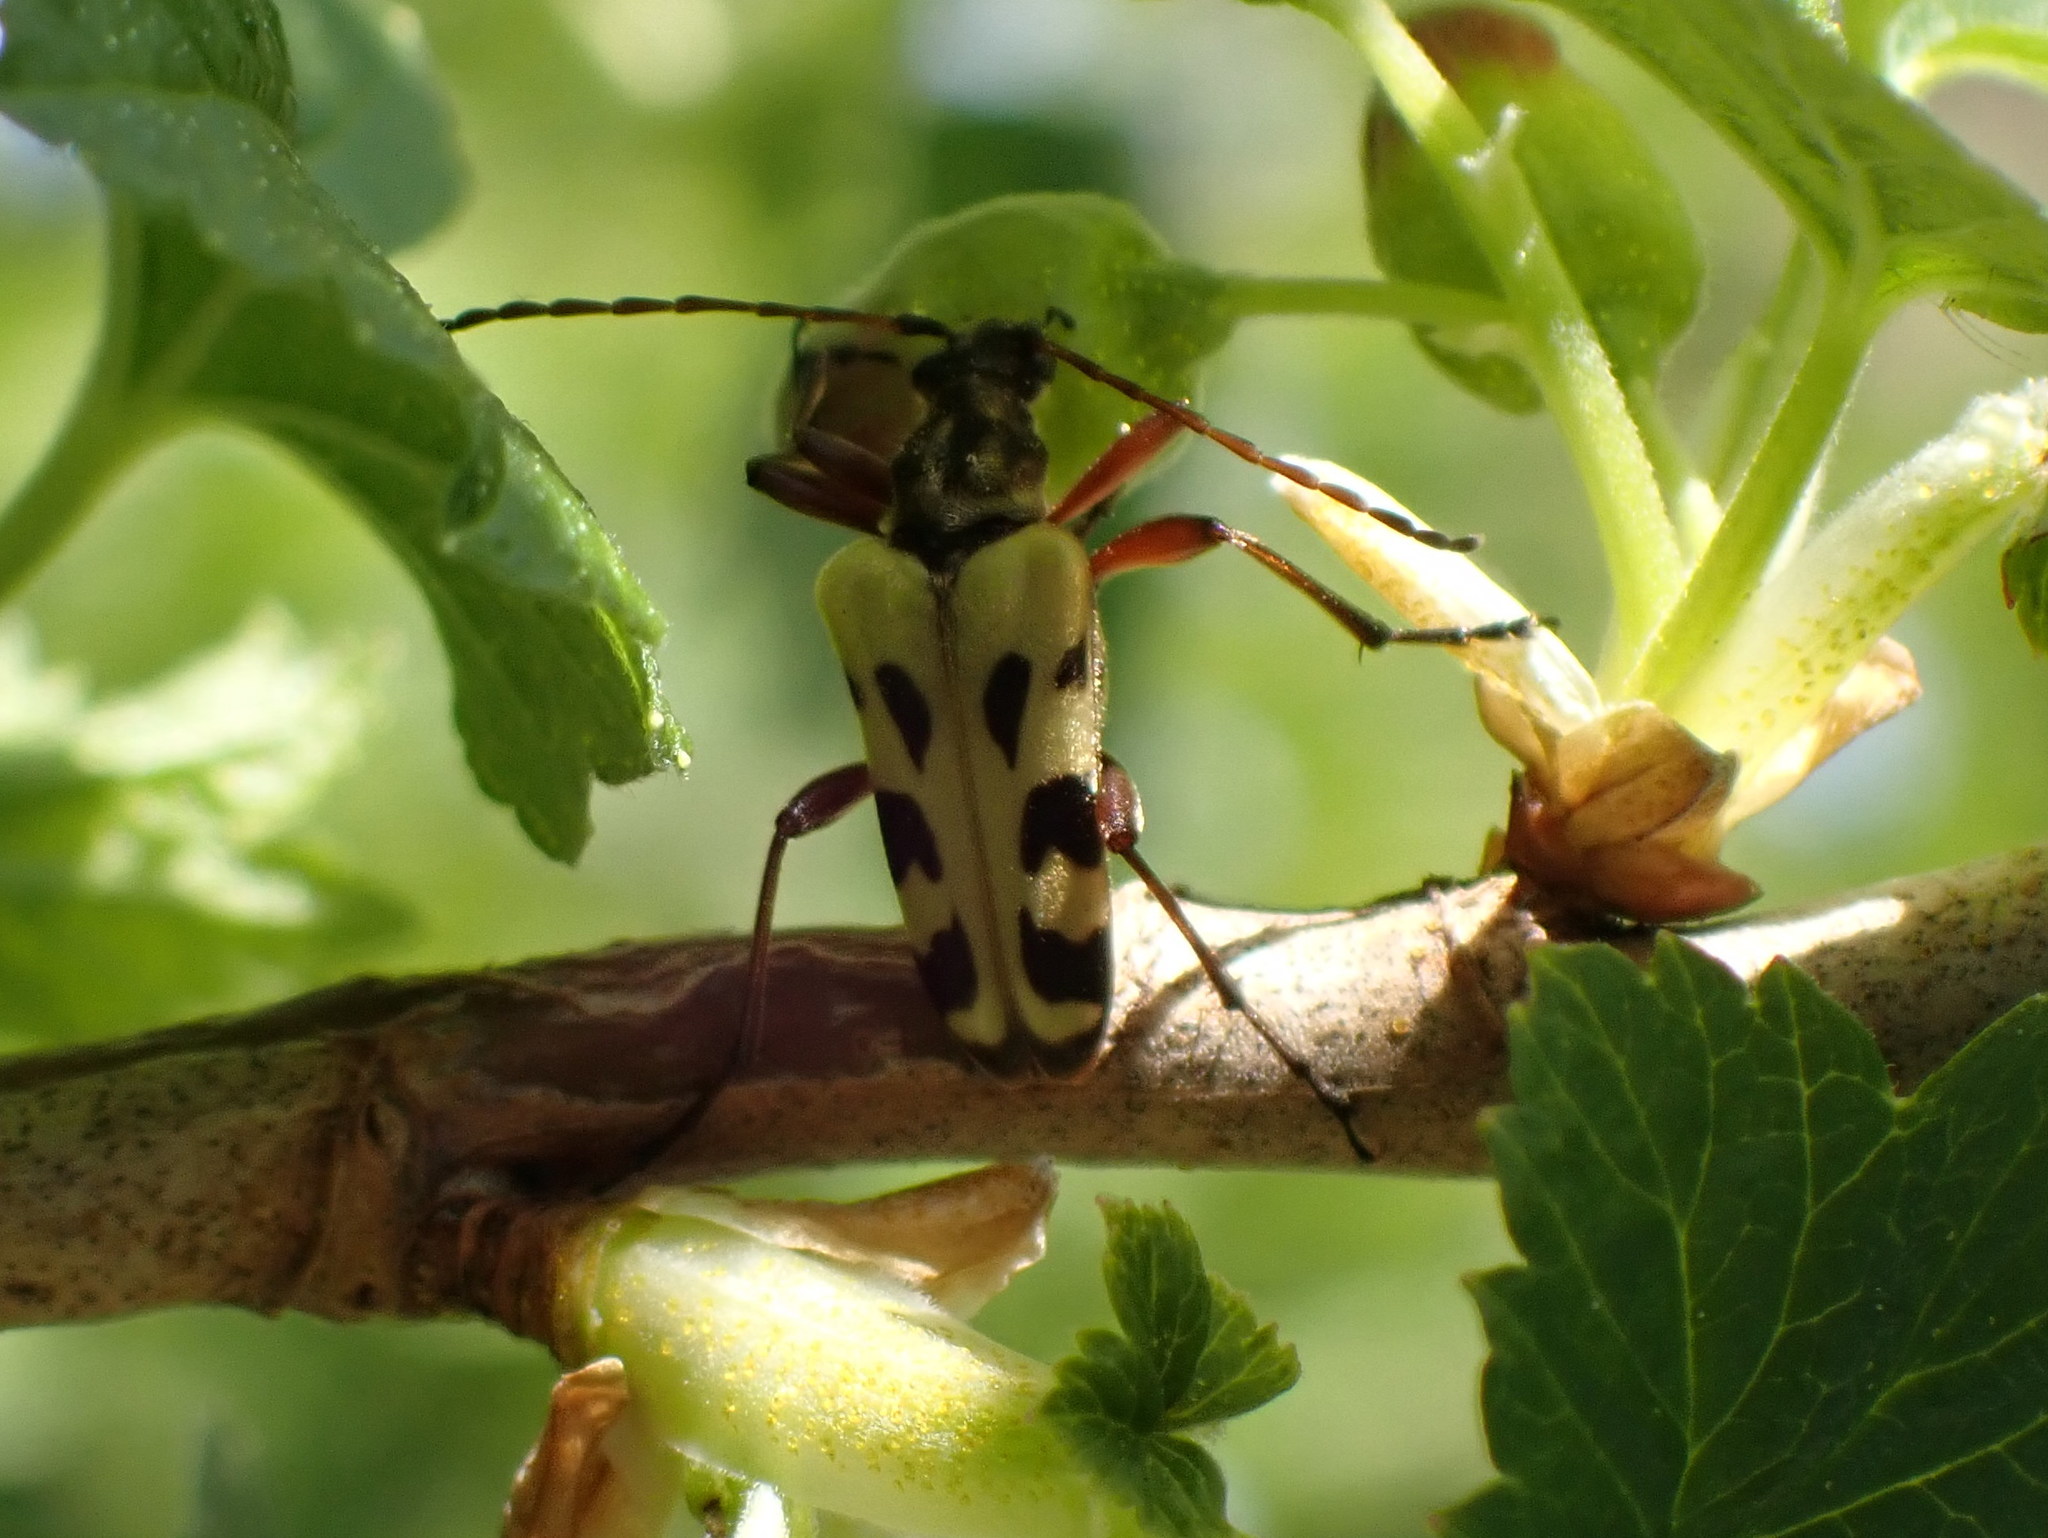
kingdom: Animalia
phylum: Arthropoda
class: Insecta
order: Coleoptera
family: Cerambycidae
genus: Evodinus
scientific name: Evodinus monticola
